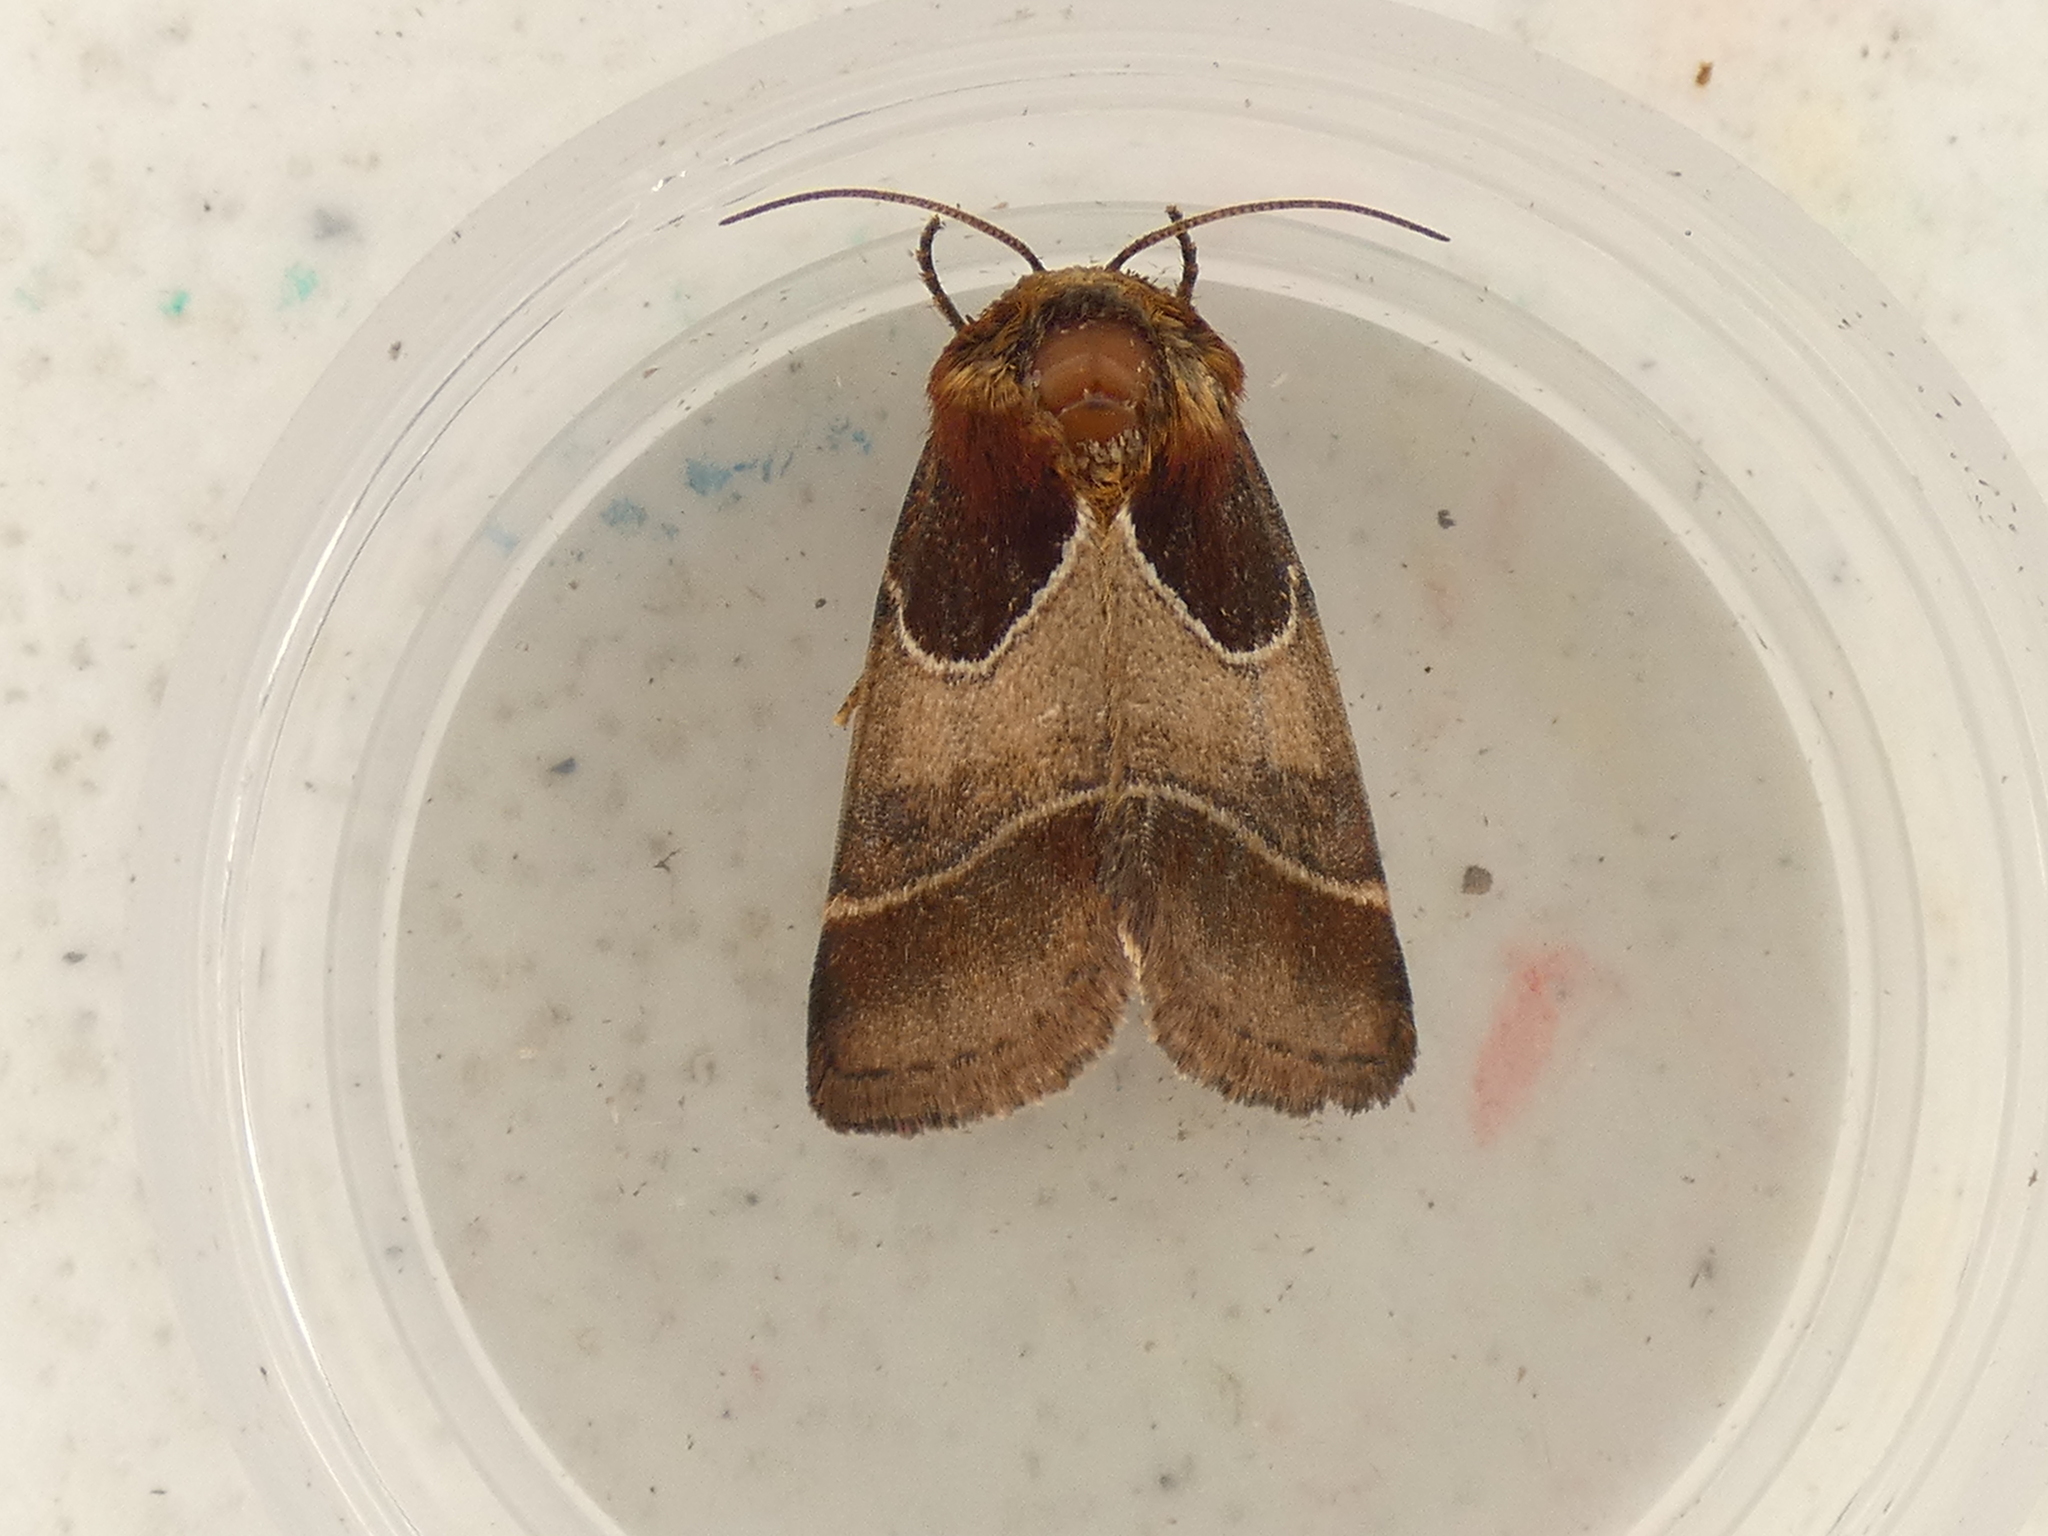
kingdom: Animalia
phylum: Arthropoda
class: Insecta
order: Lepidoptera
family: Noctuidae
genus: Schinia
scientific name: Schinia arcigera
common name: Arcigera flower moth
